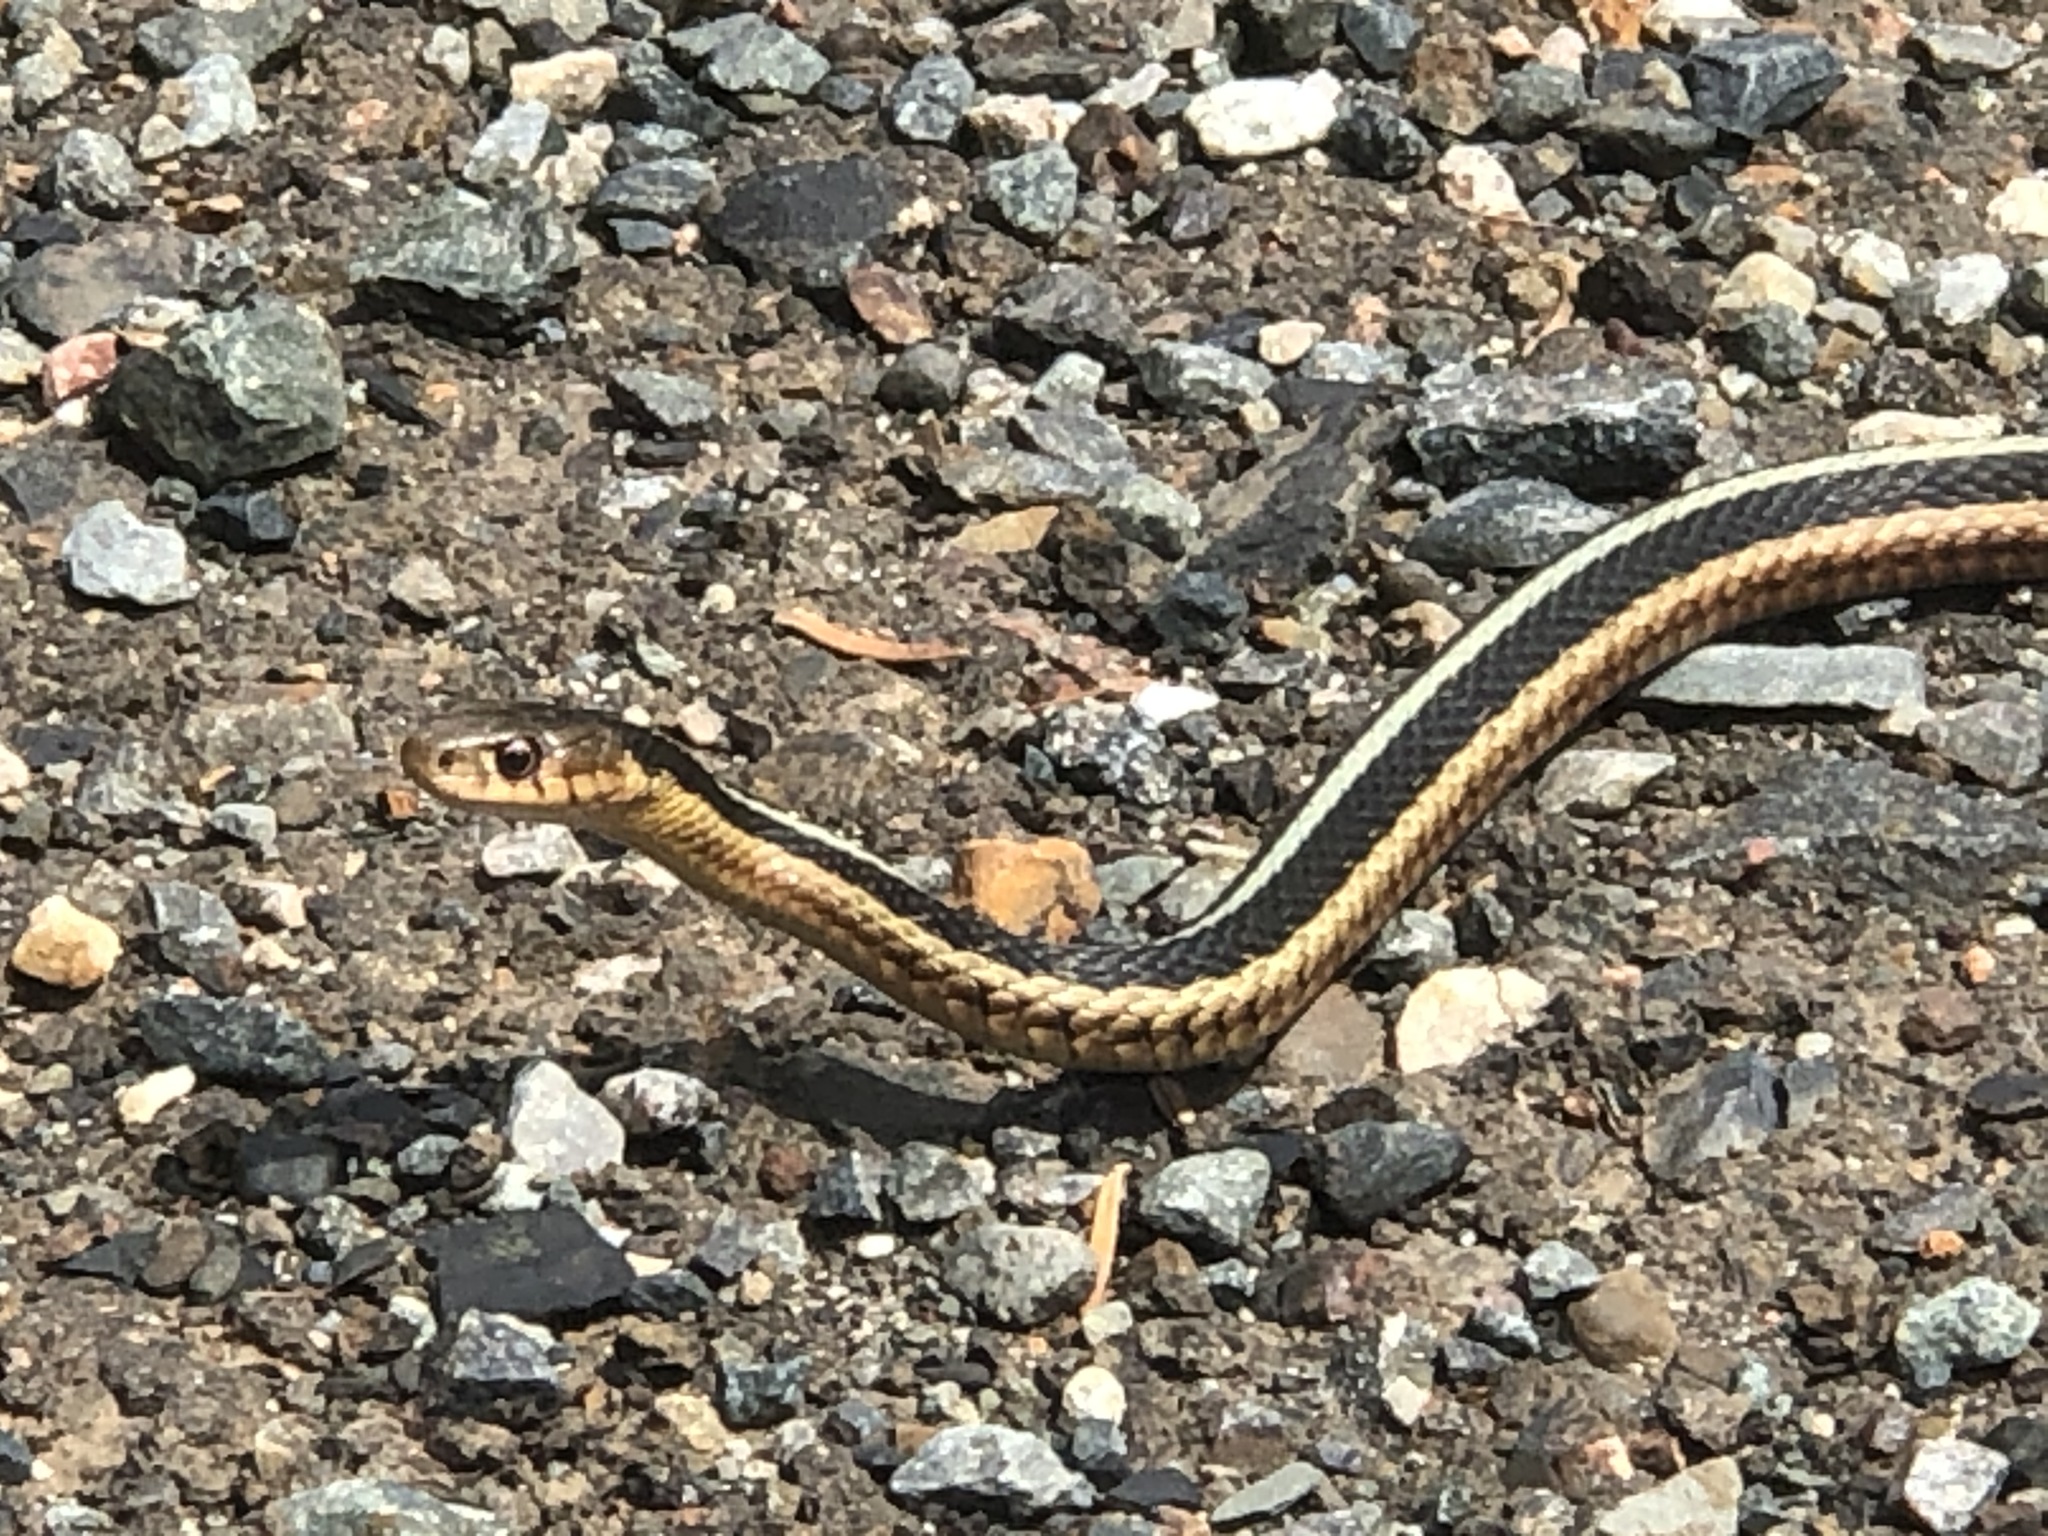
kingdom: Animalia
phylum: Chordata
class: Squamata
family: Colubridae
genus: Thamnophis
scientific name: Thamnophis sirtalis
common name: Common garter snake
